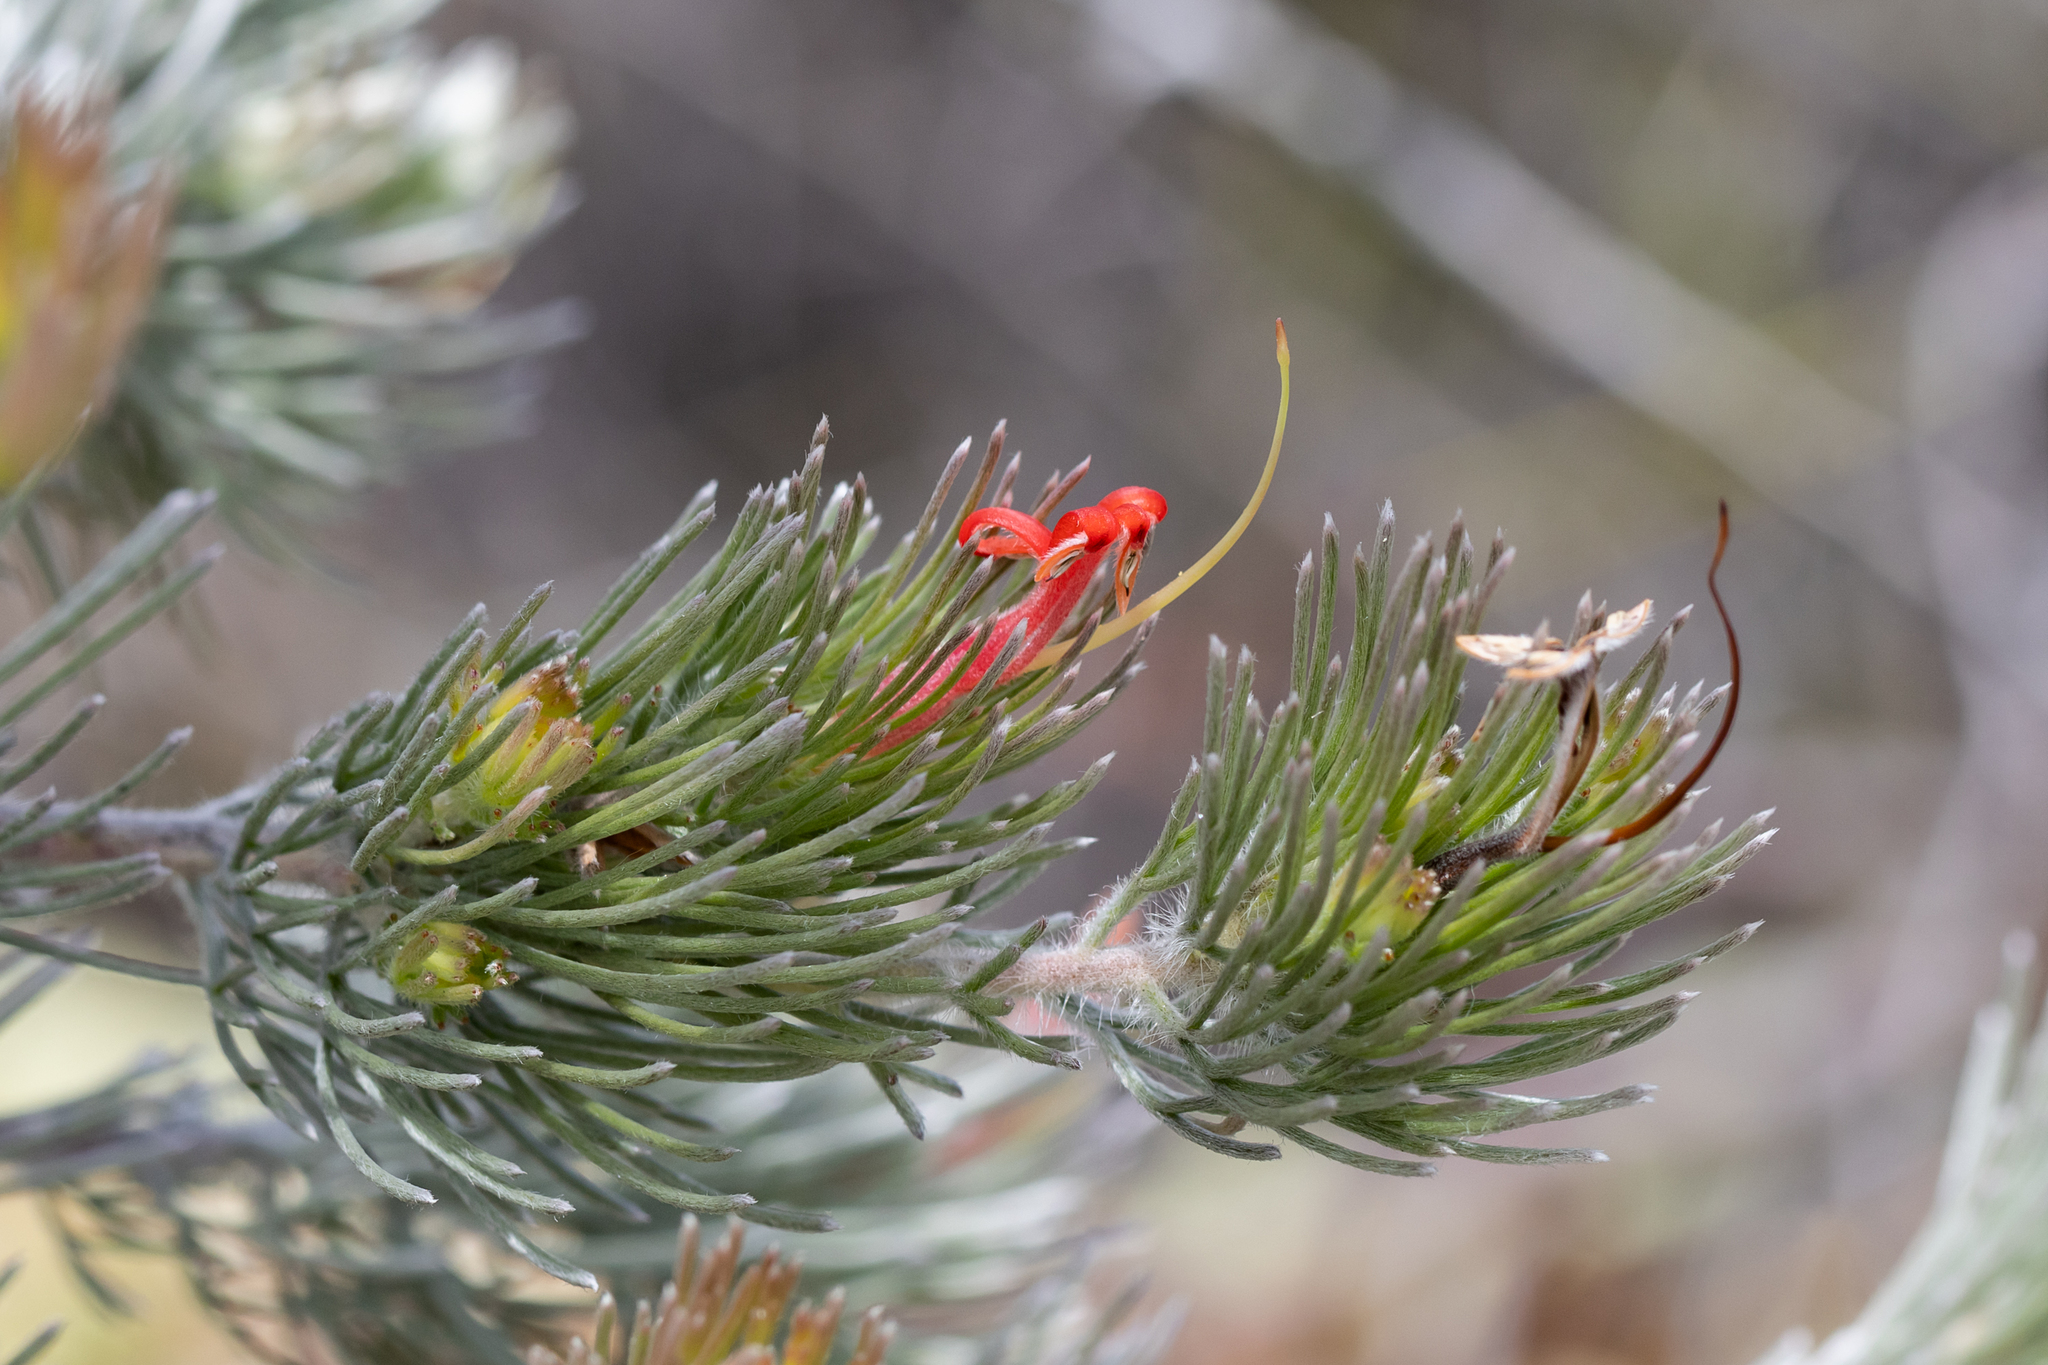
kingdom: Plantae
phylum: Tracheophyta
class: Magnoliopsida
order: Proteales
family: Proteaceae
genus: Adenanthos
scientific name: Adenanthos sericeus
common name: Coastal woollybush
